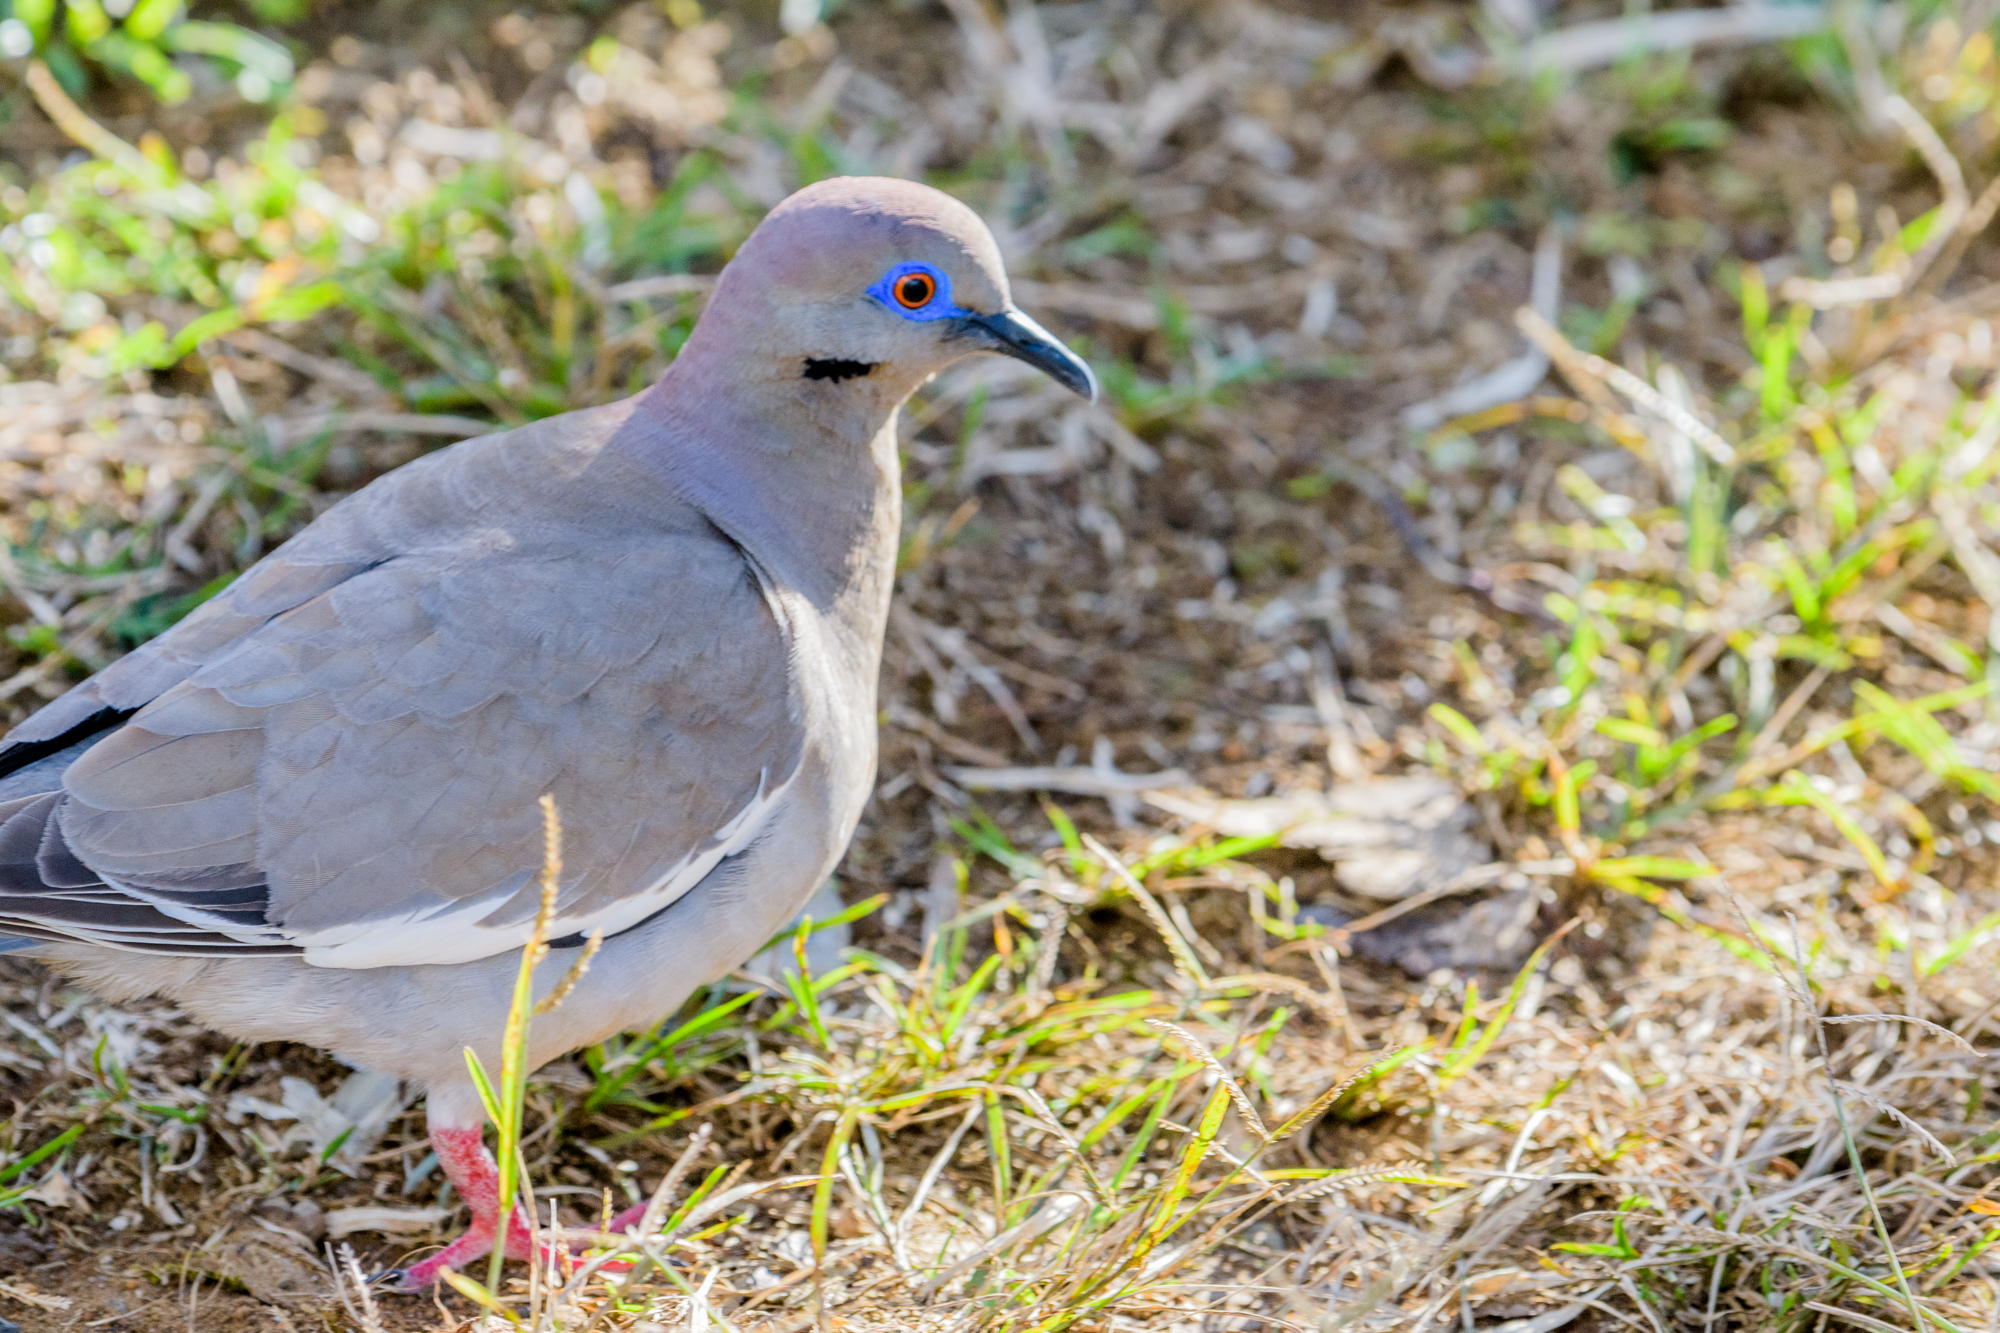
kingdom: Animalia
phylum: Chordata
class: Aves
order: Columbiformes
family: Columbidae
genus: Zenaida
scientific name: Zenaida asiatica
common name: White-winged dove
